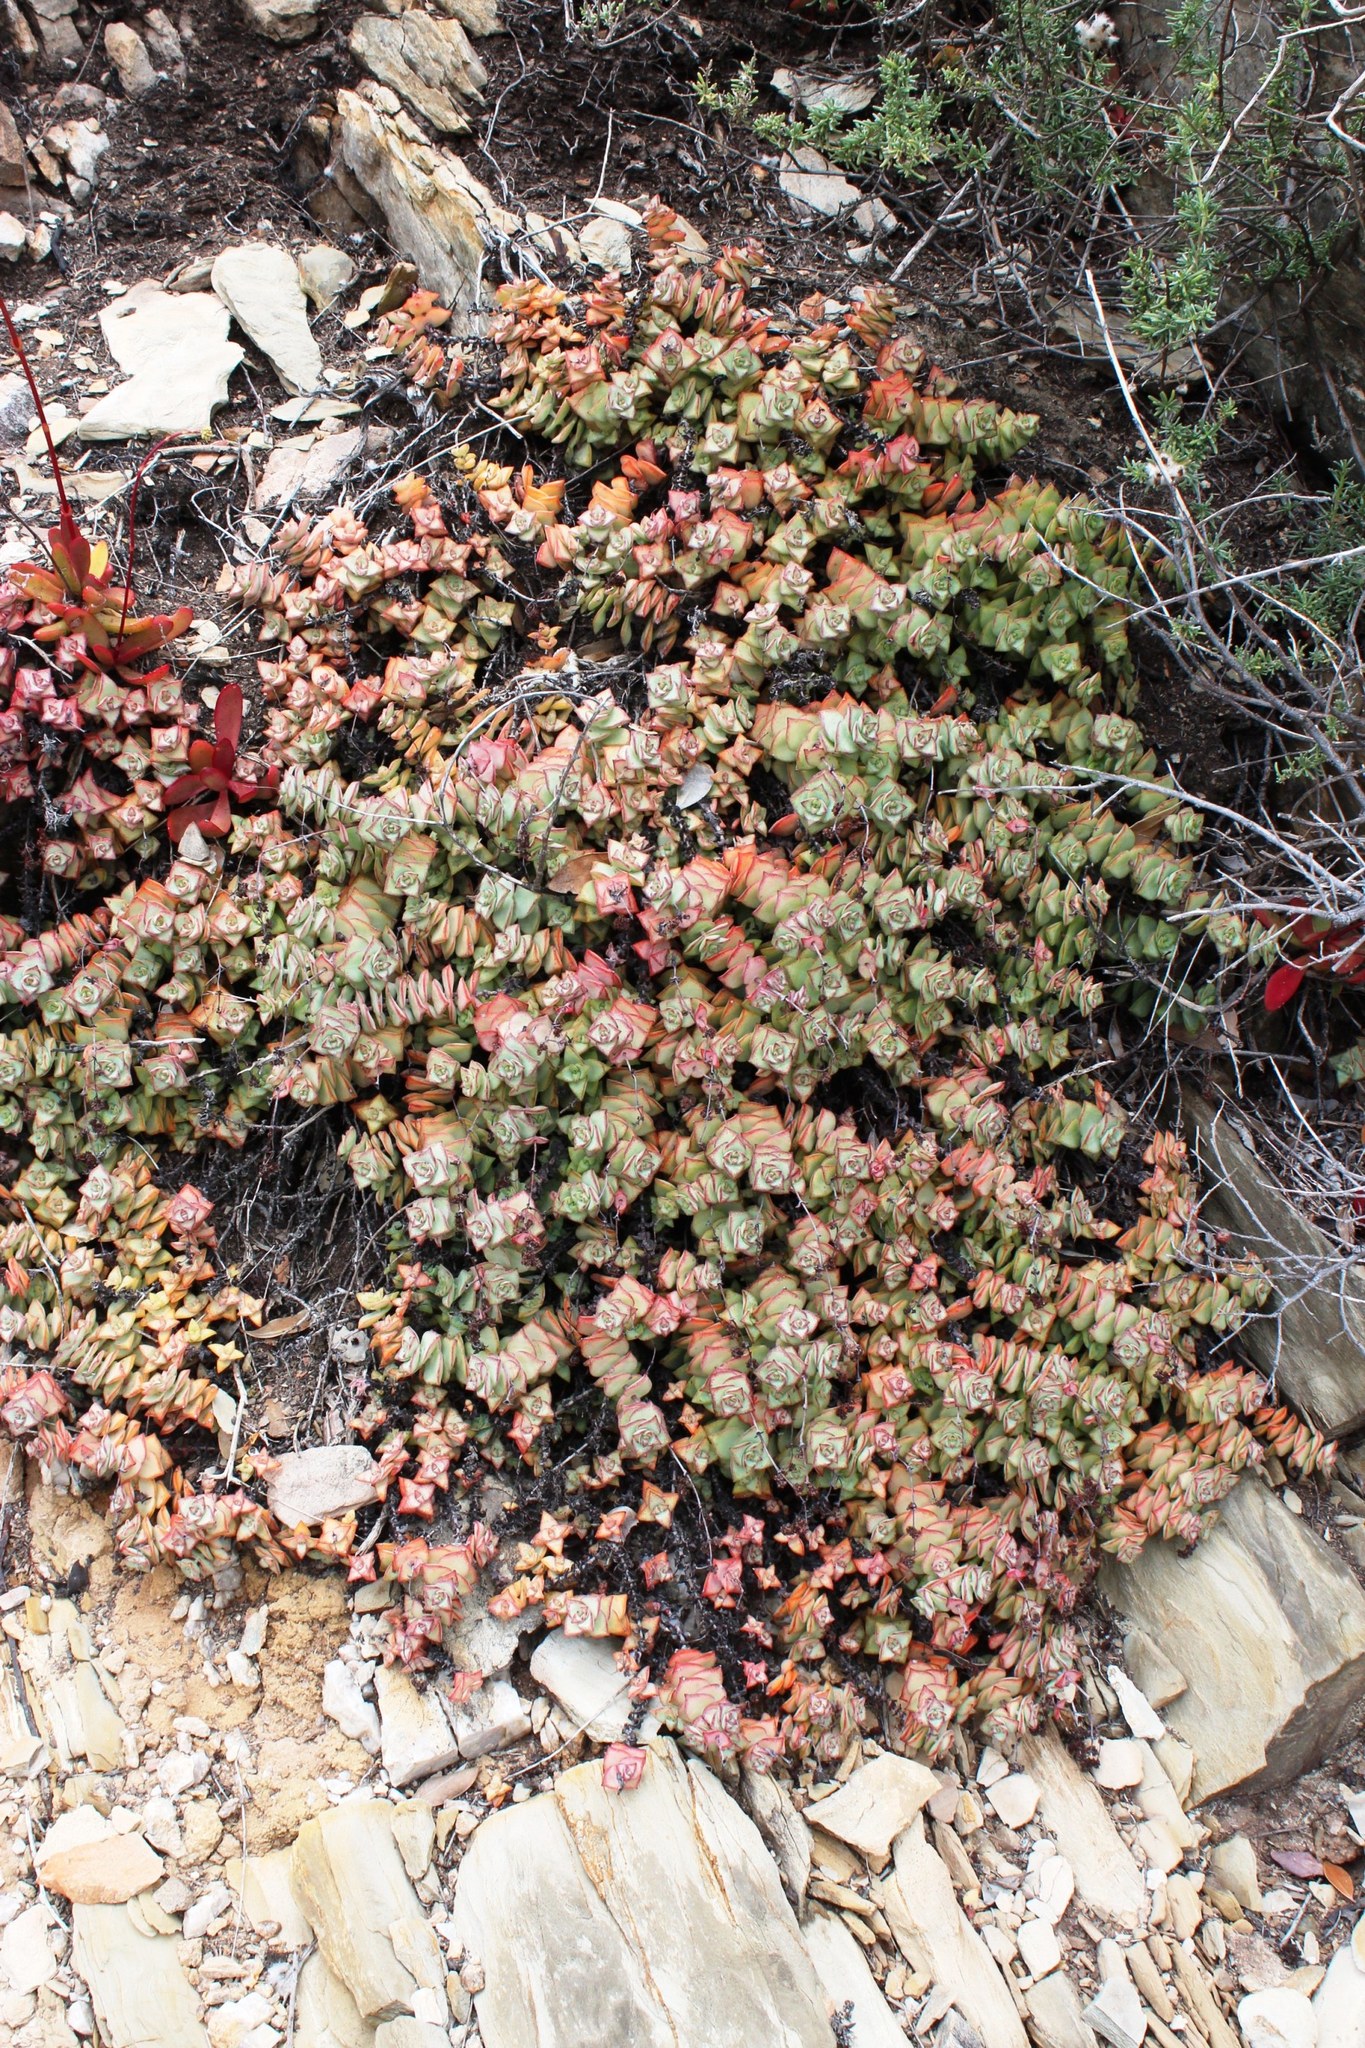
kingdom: Plantae
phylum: Tracheophyta
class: Magnoliopsida
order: Saxifragales
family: Crassulaceae
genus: Crassula
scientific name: Crassula perforata
